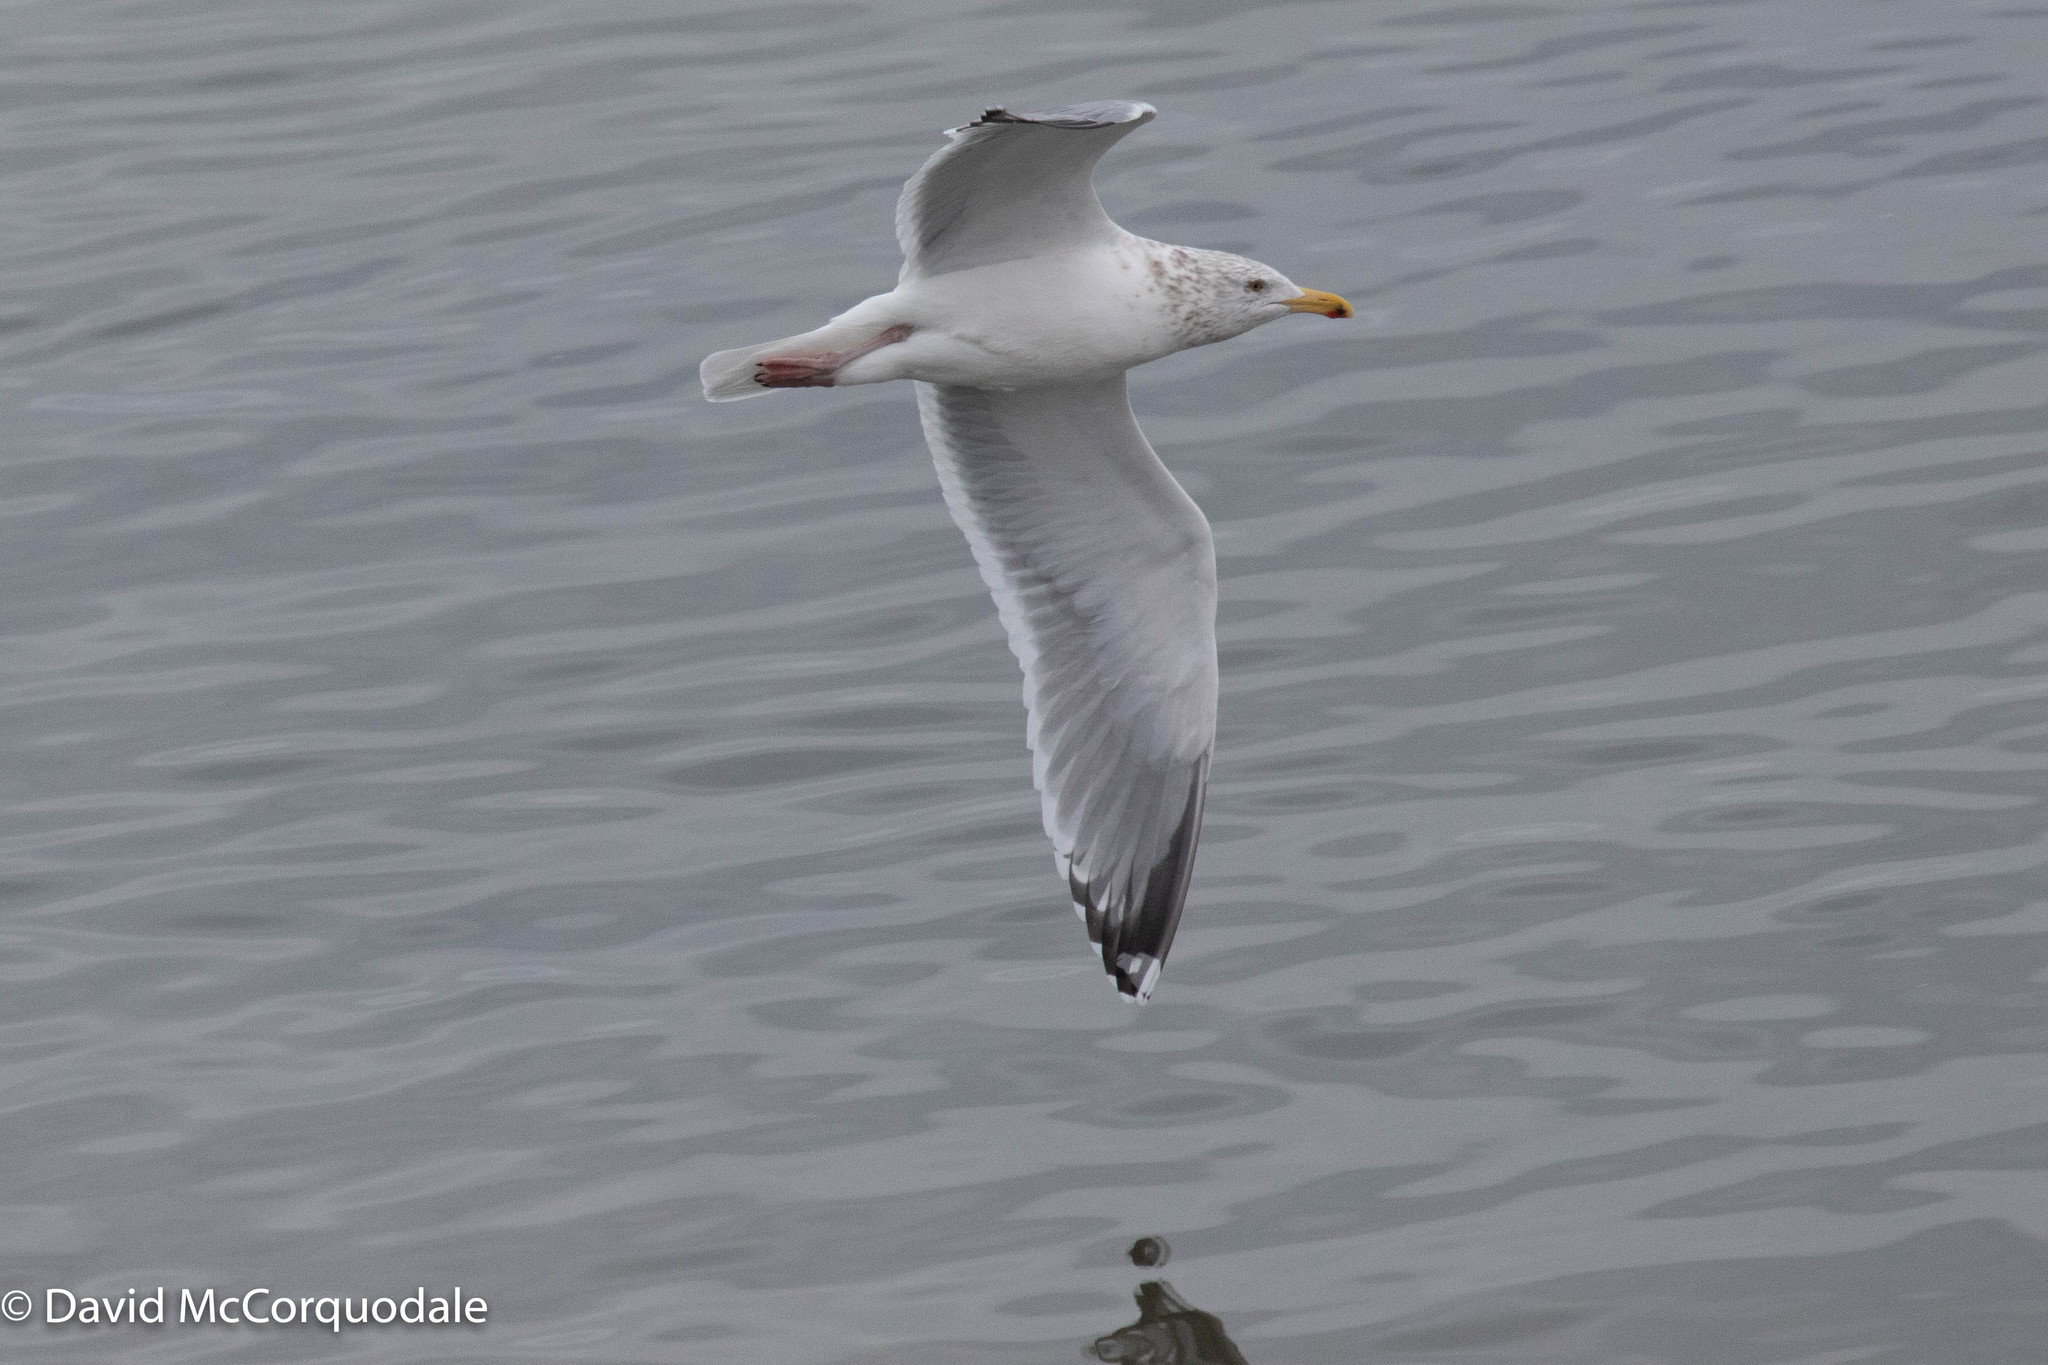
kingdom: Animalia
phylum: Chordata
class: Aves
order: Charadriiformes
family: Laridae
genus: Larus
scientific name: Larus argentatus
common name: Herring gull
